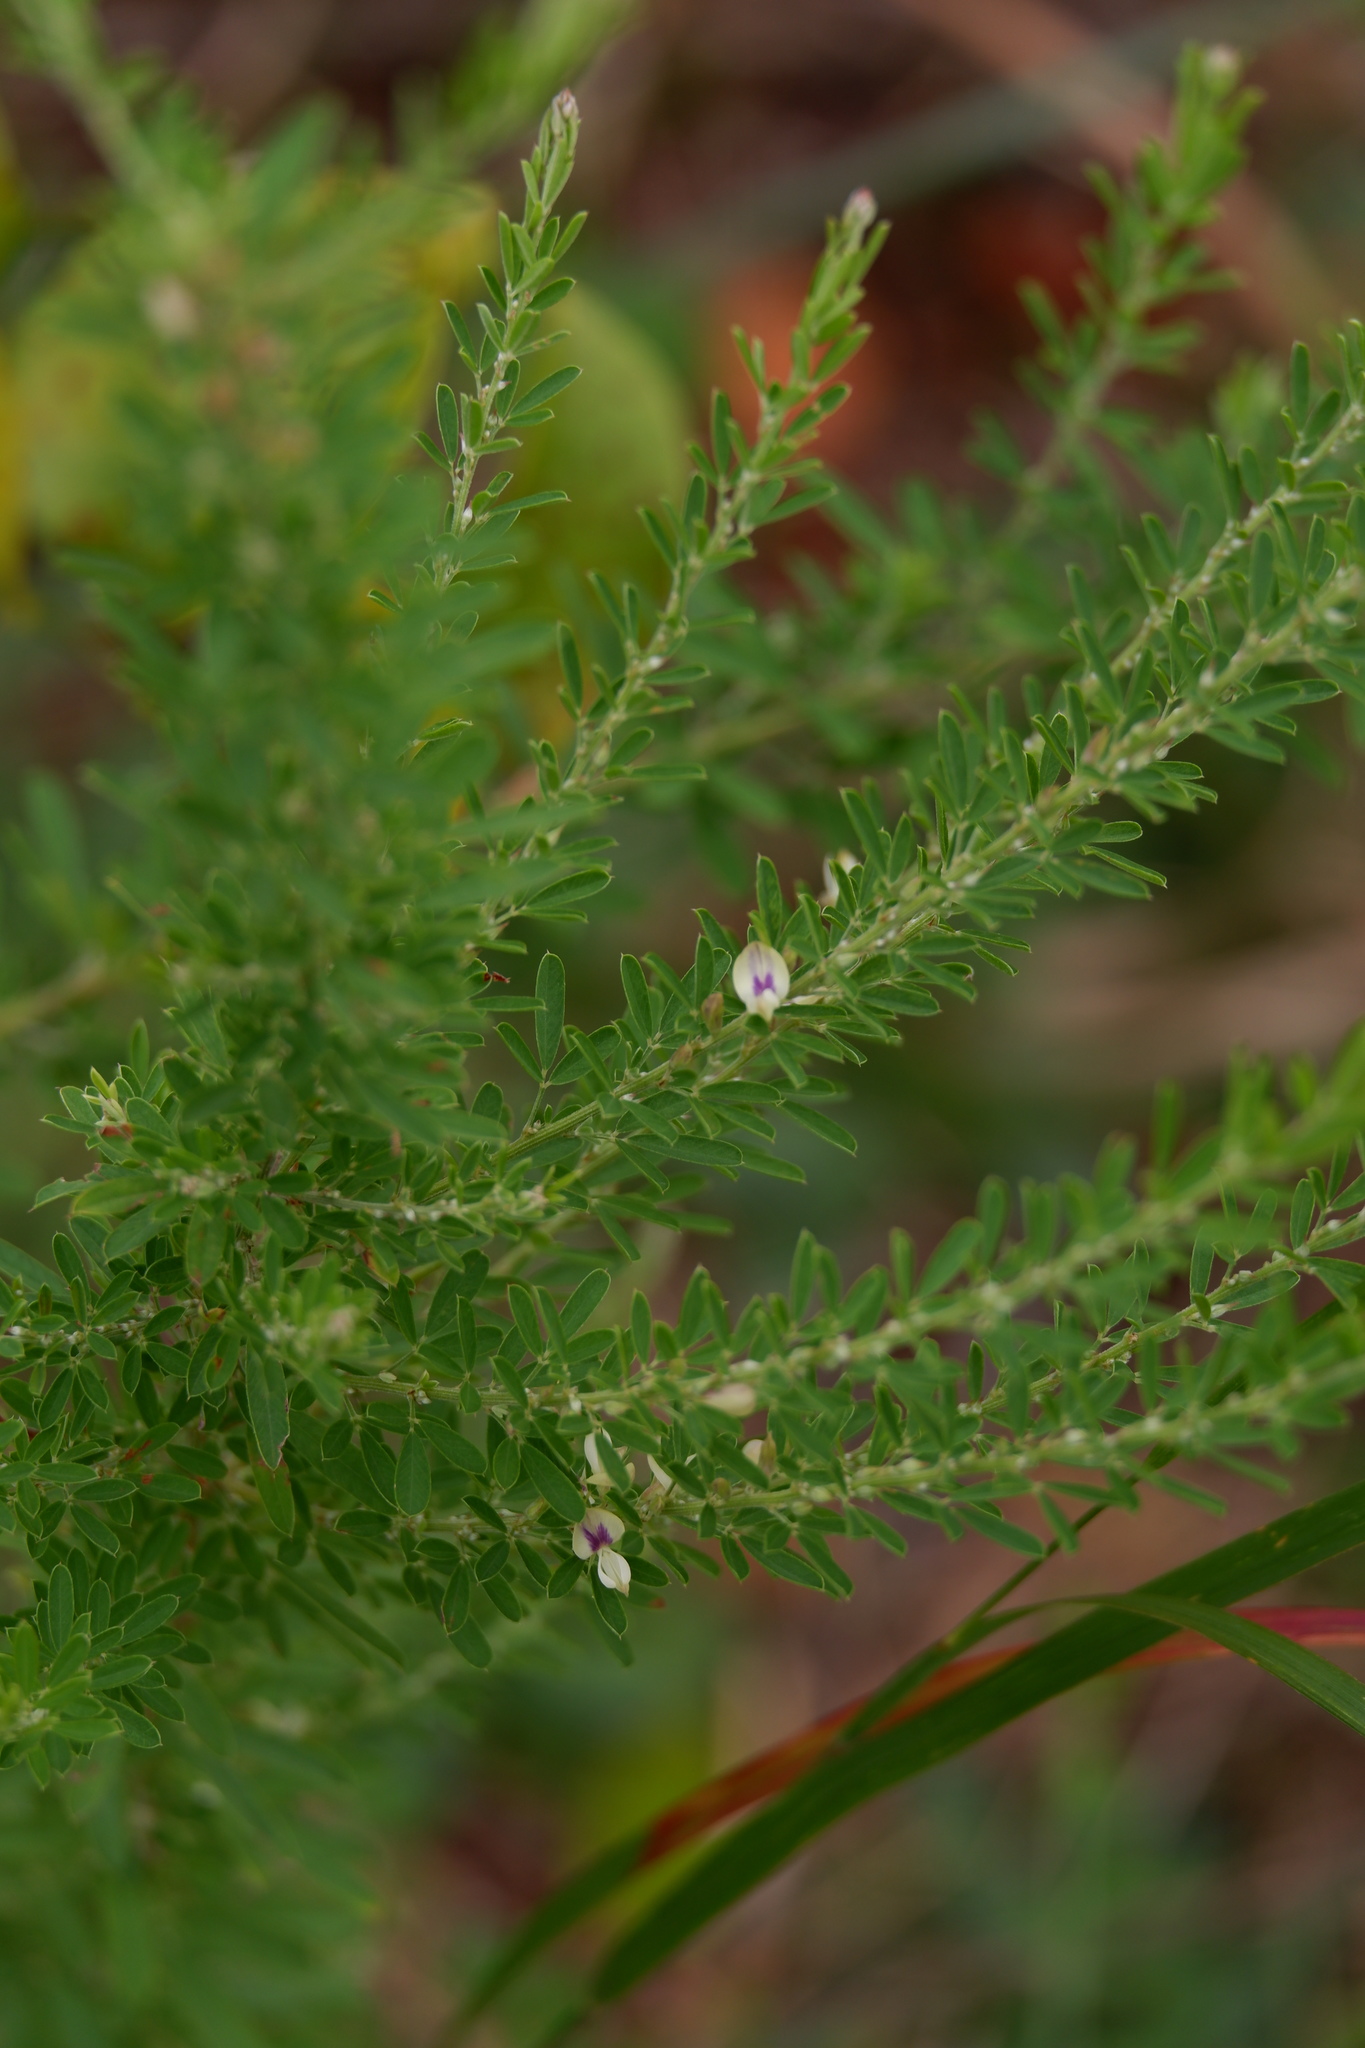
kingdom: Plantae
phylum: Tracheophyta
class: Magnoliopsida
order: Fabales
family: Fabaceae
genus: Lespedeza
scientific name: Lespedeza cuneata
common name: Chinese bush-clover
